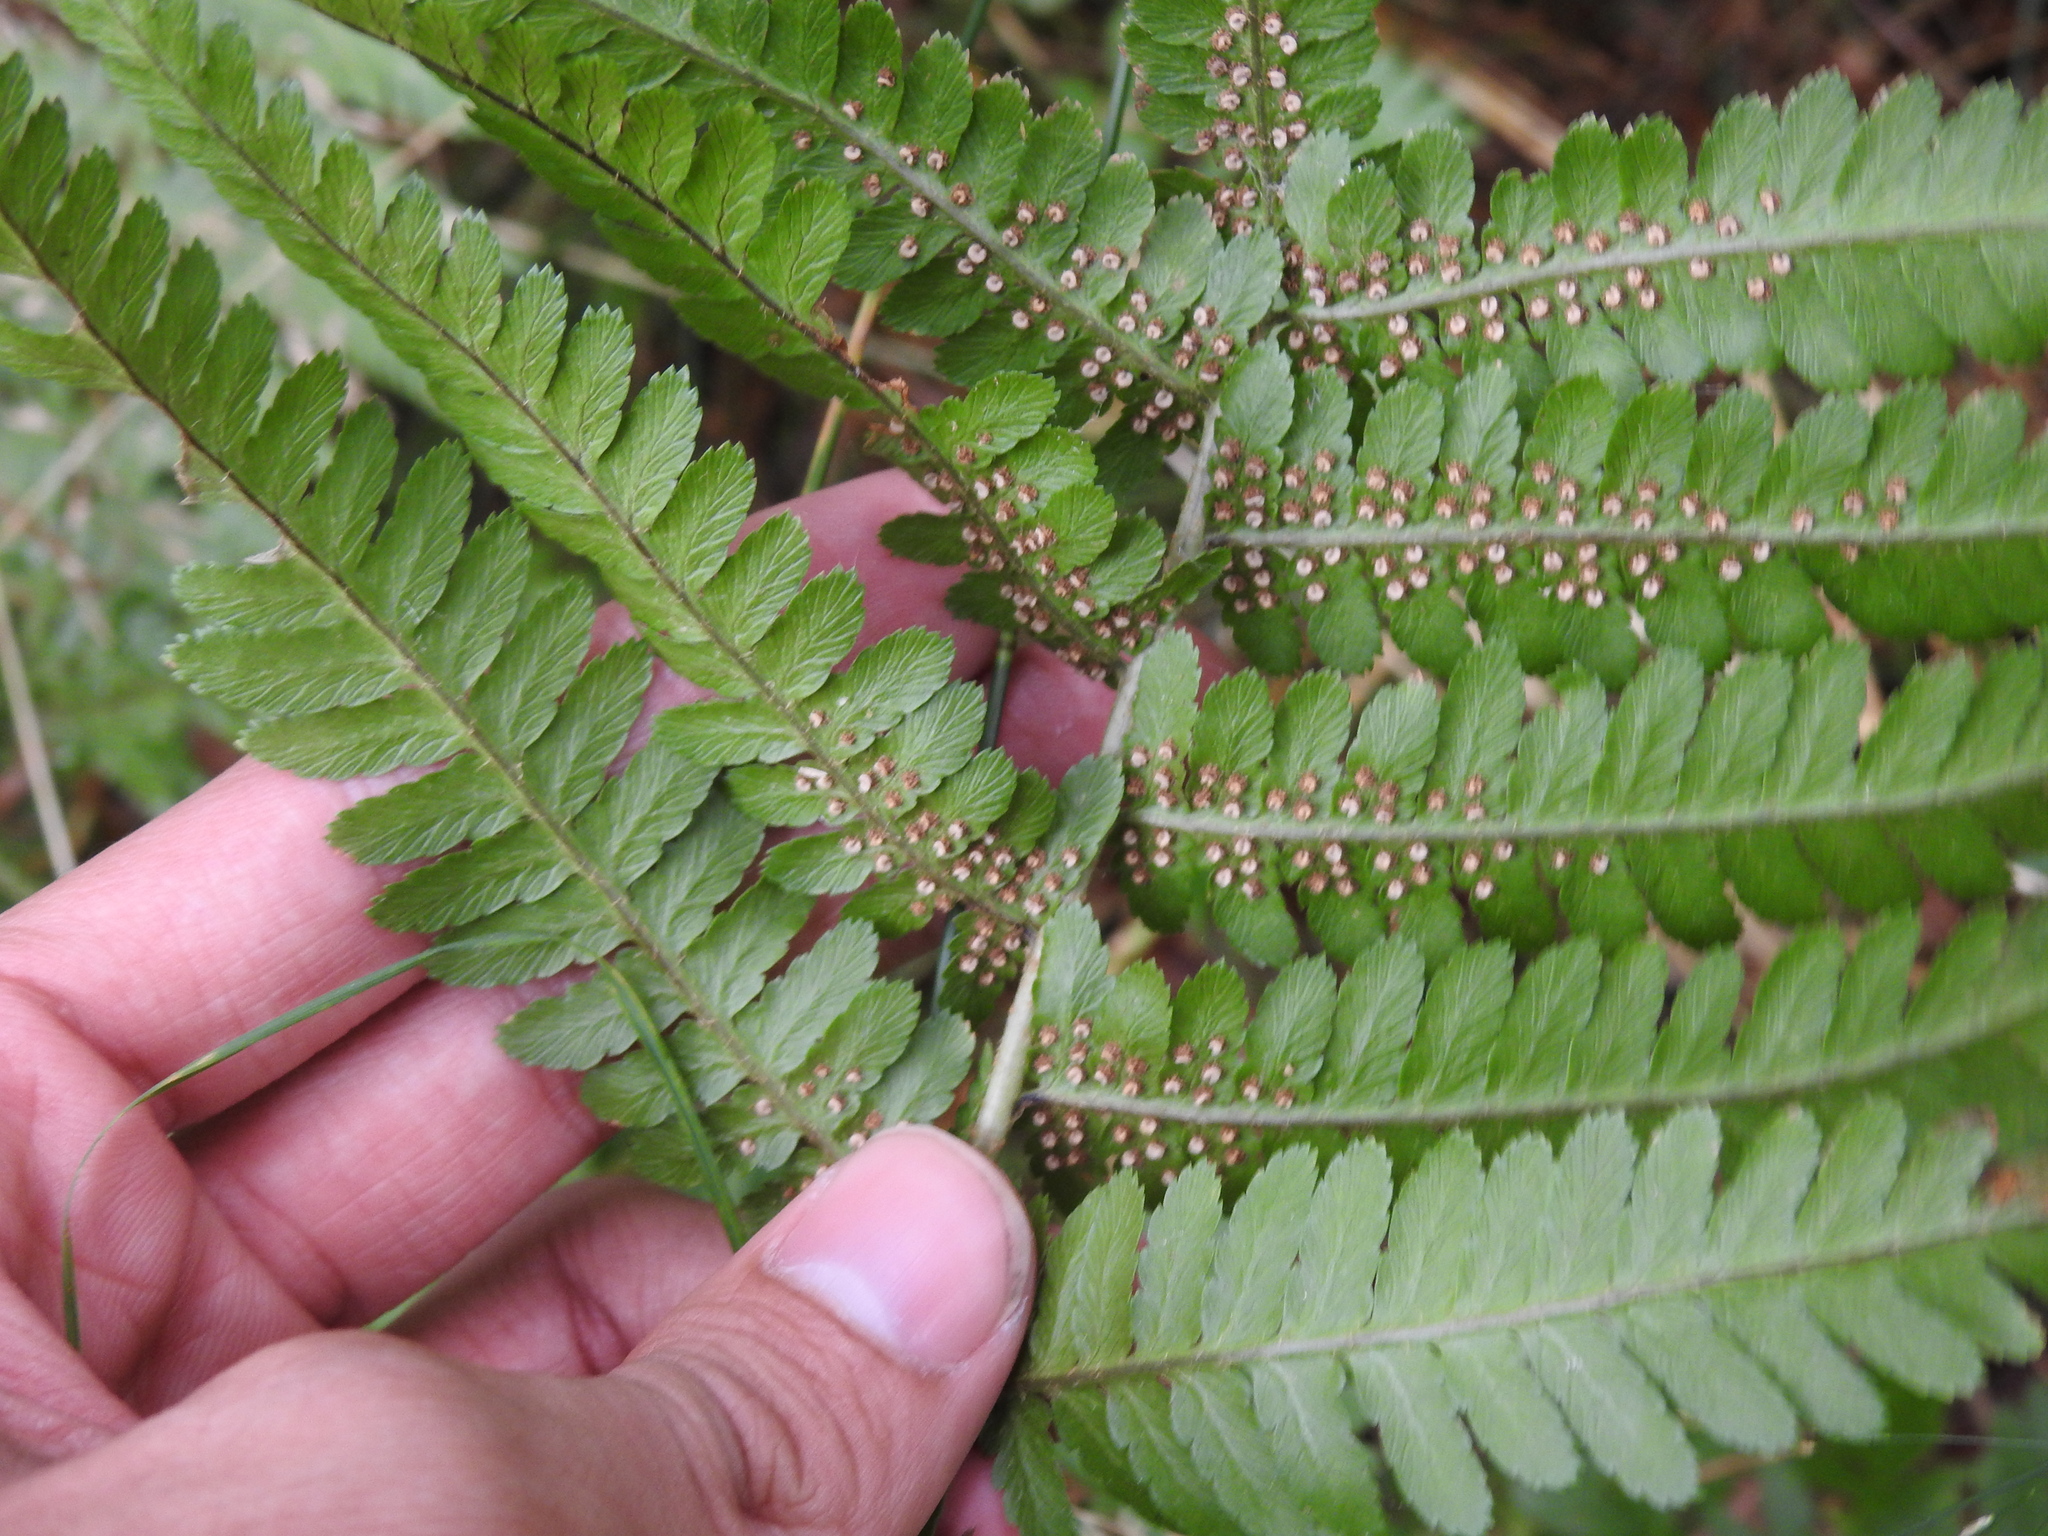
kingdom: Plantae
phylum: Tracheophyta
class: Polypodiopsida
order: Polypodiales
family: Dryopteridaceae
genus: Dryopteris
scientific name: Dryopteris filix-mas
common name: Male fern
